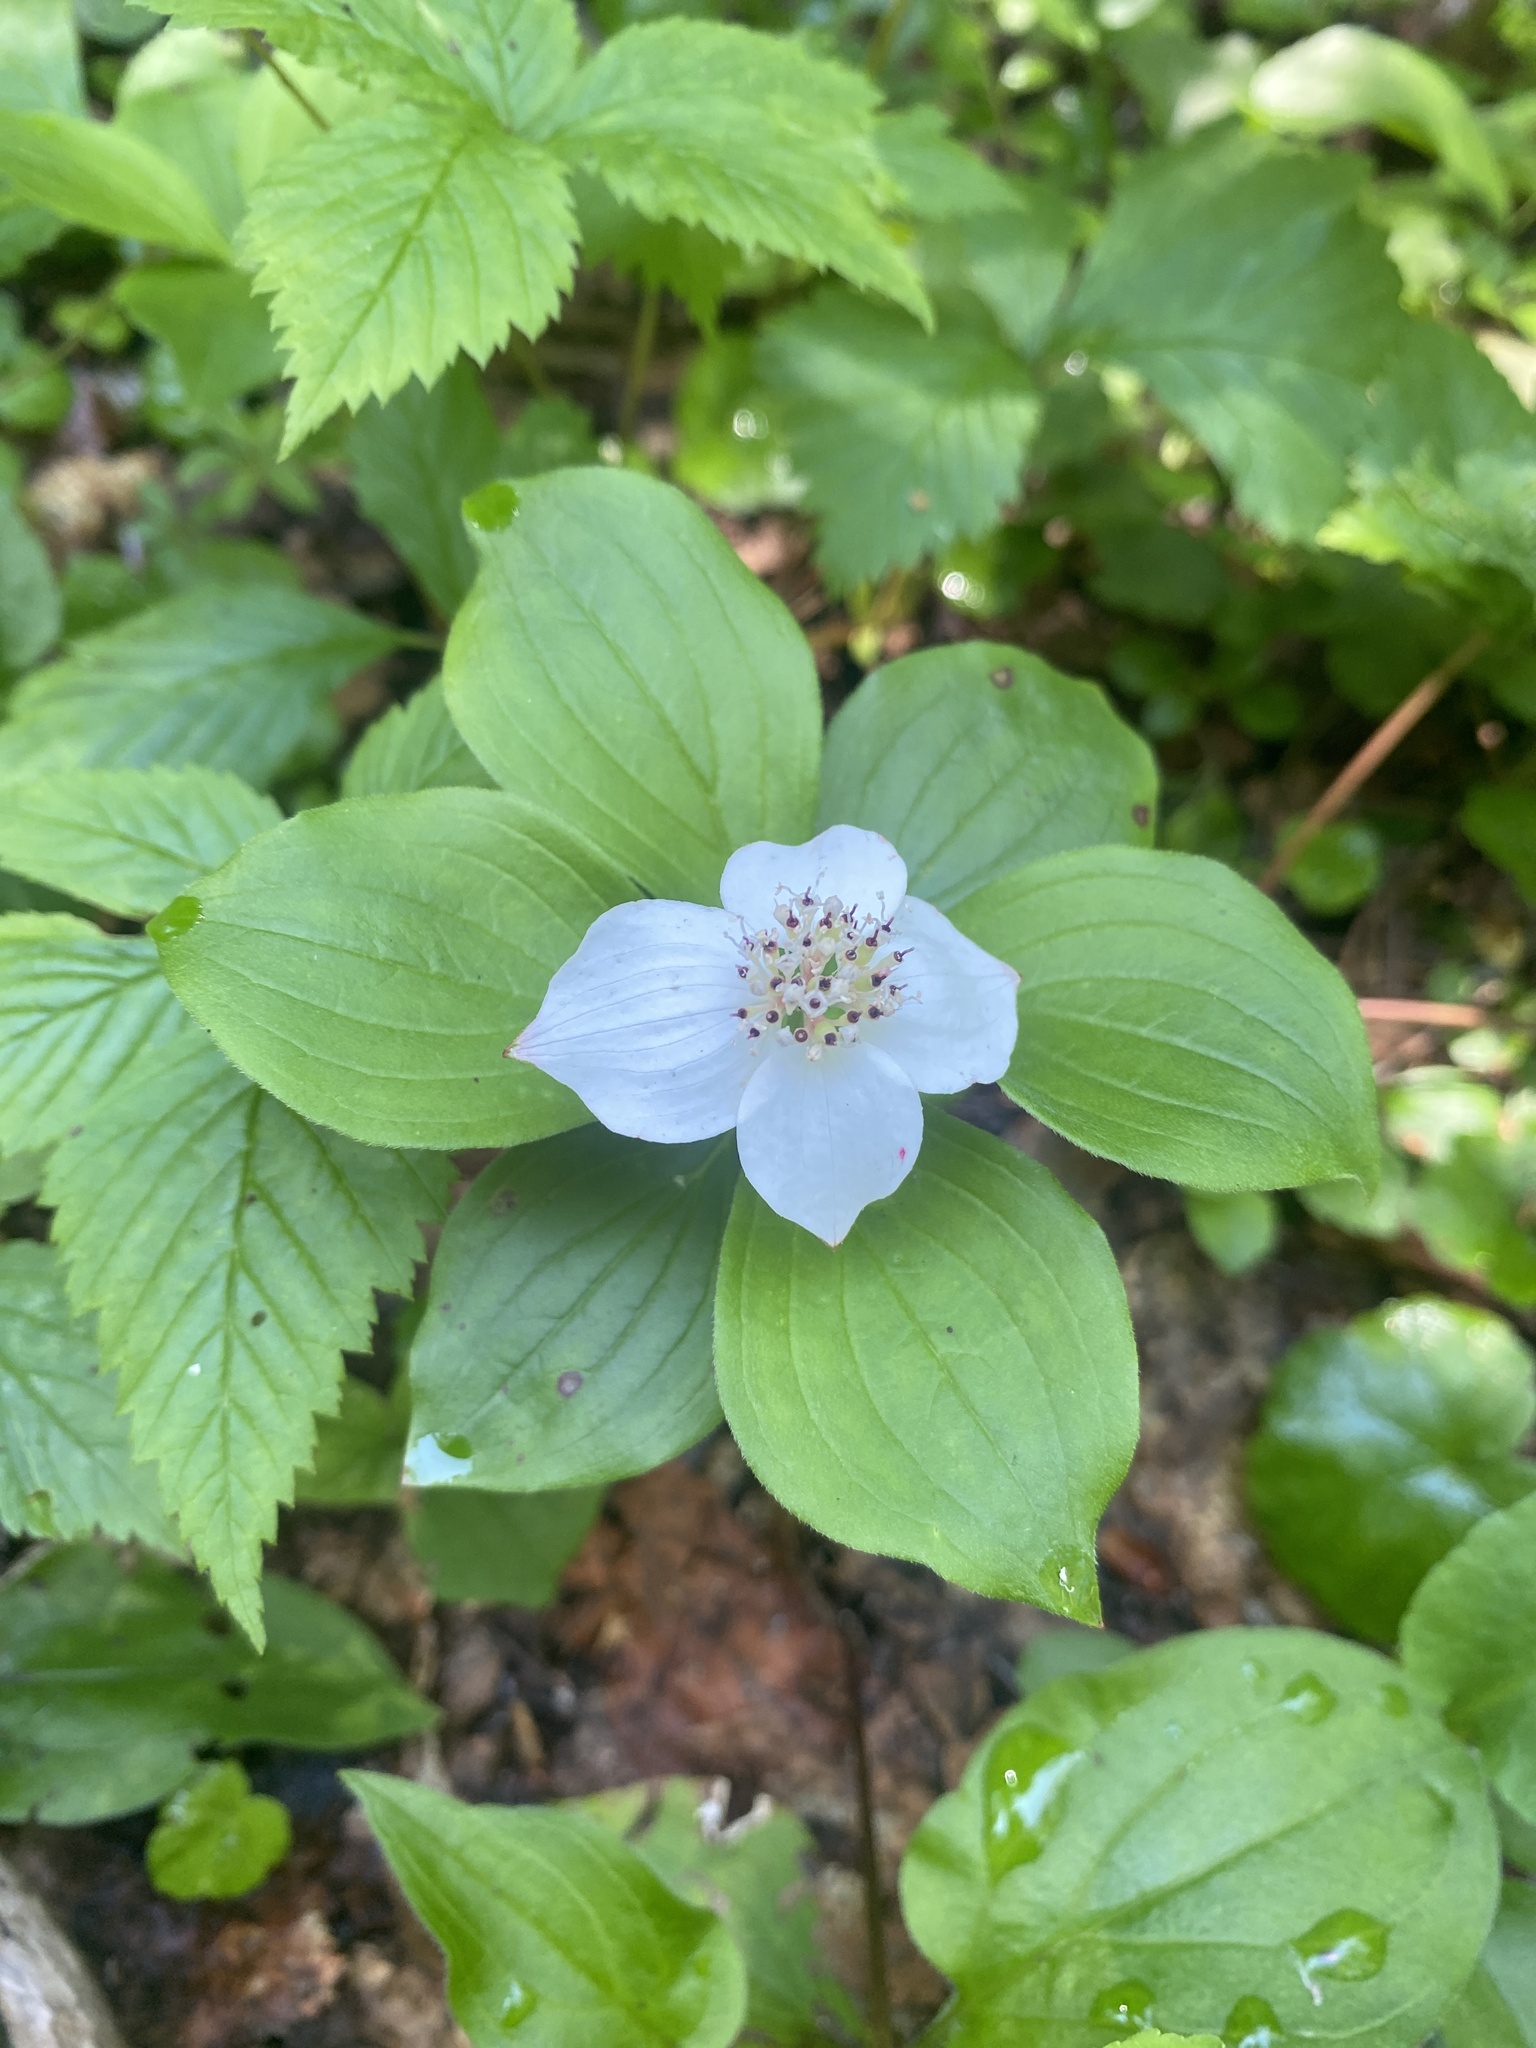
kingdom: Plantae
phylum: Tracheophyta
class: Magnoliopsida
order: Cornales
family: Cornaceae
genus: Cornus
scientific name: Cornus canadensis
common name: Creeping dogwood
